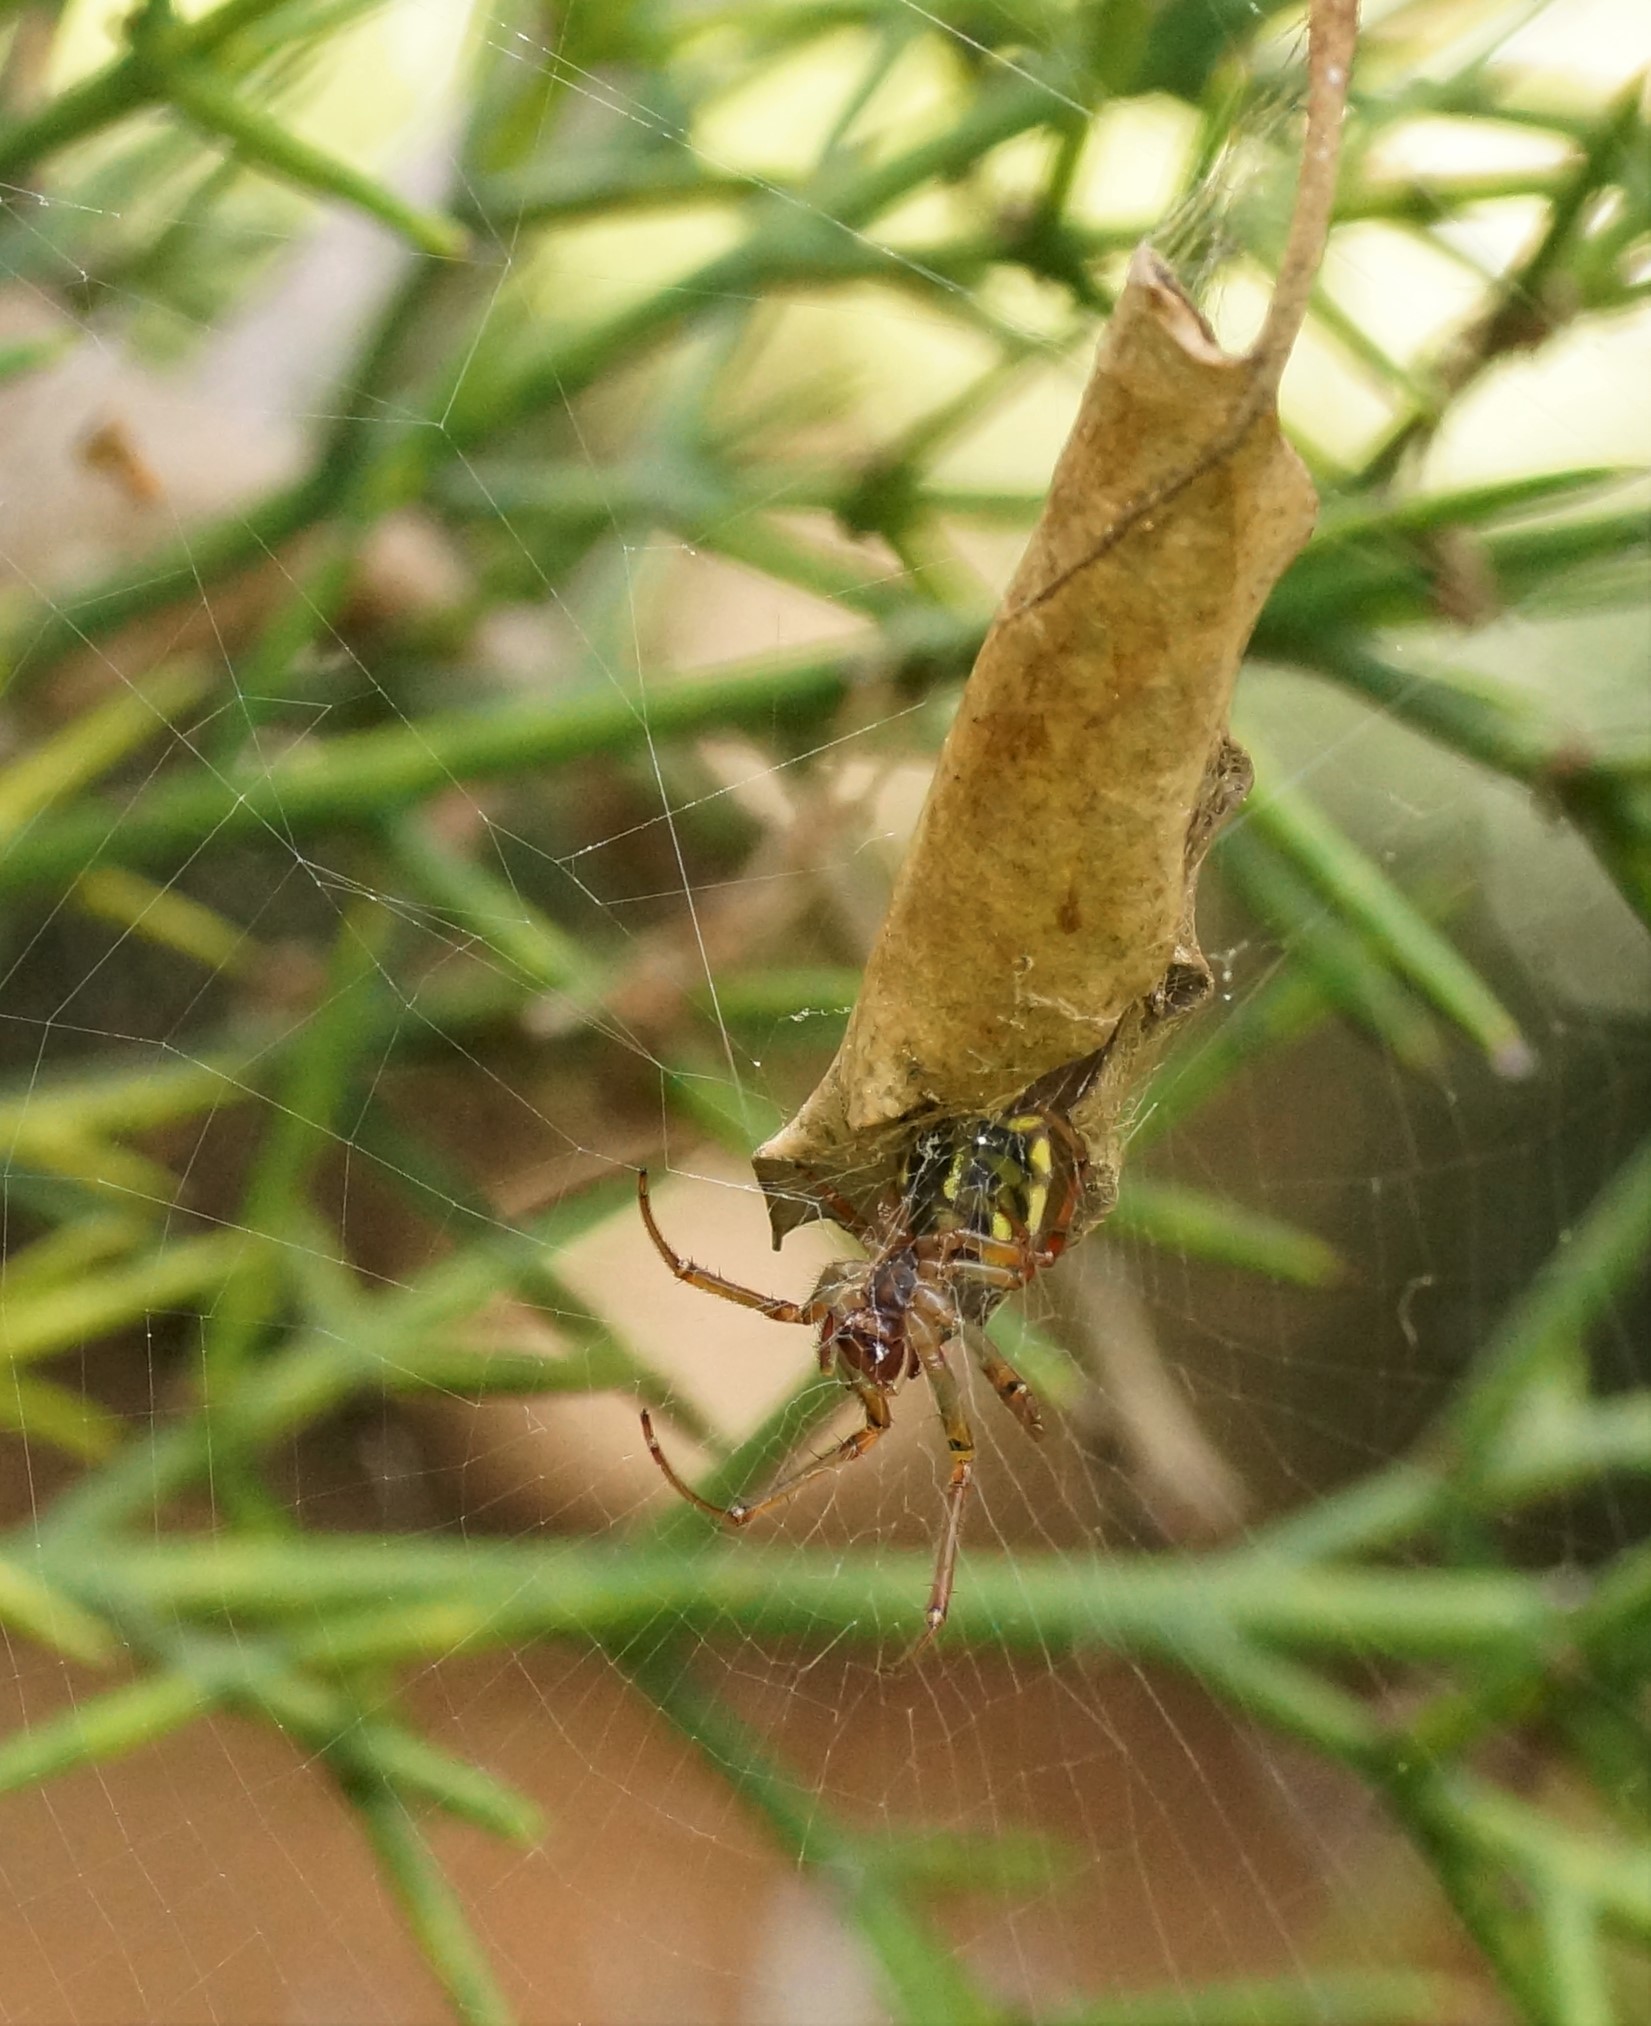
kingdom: Animalia
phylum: Arthropoda
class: Arachnida
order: Araneae
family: Araneidae
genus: Phonognatha
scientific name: Phonognatha graeffei
